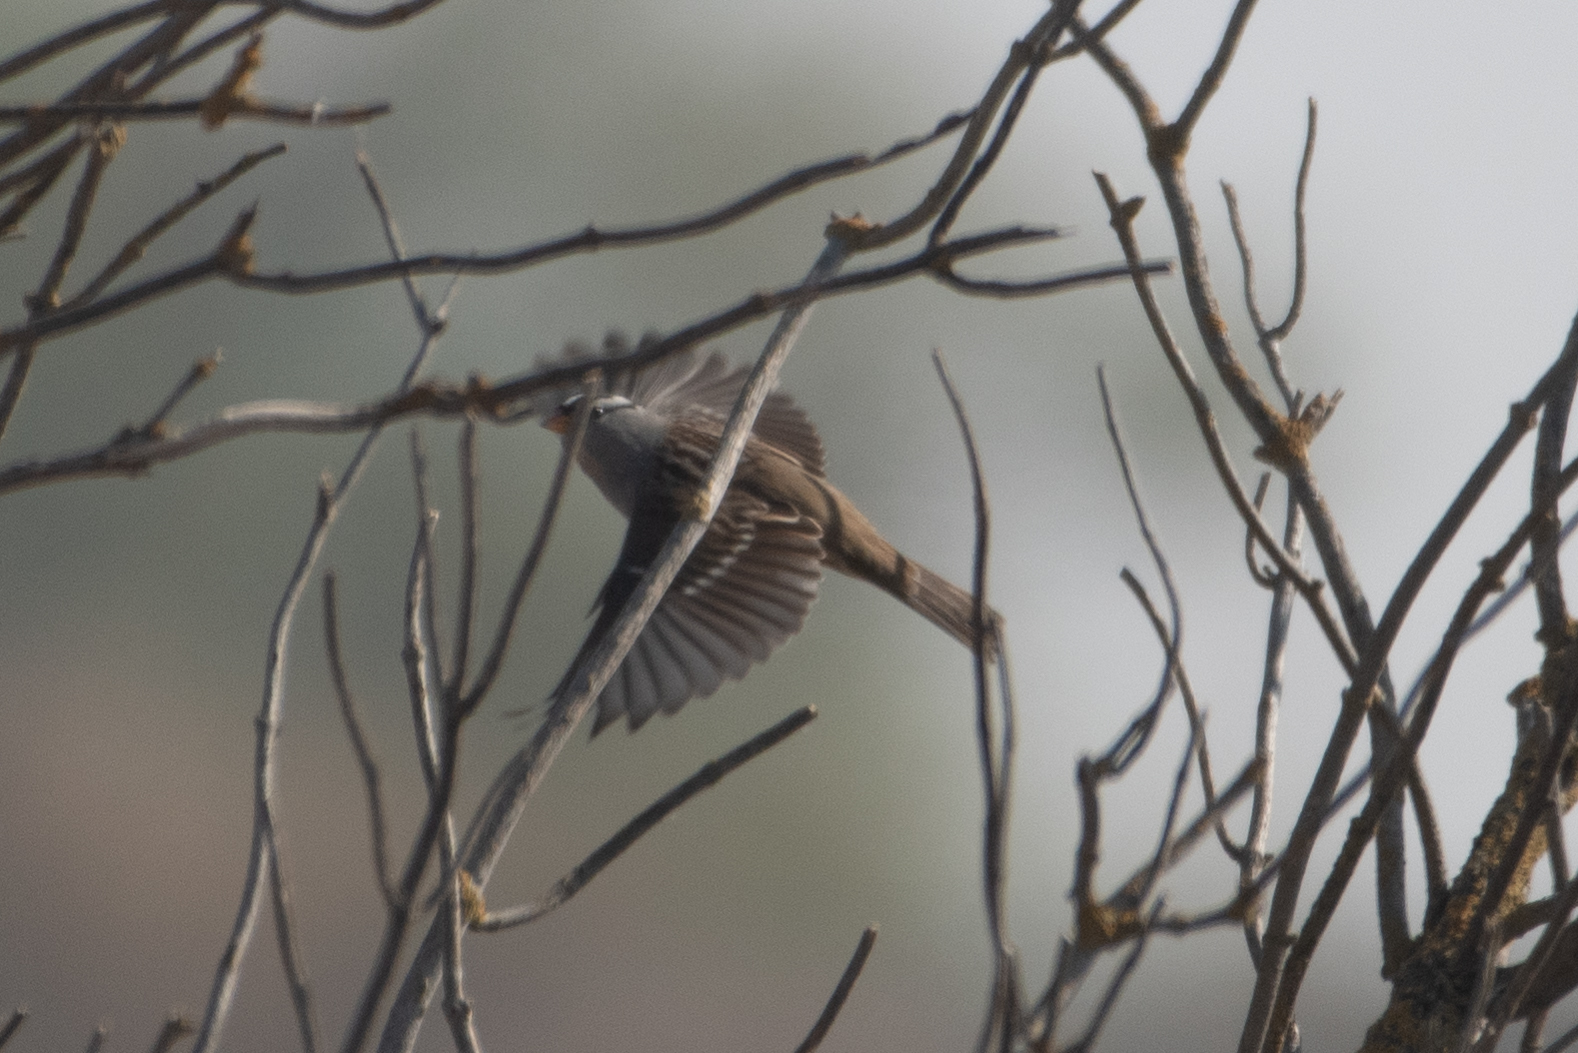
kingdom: Animalia
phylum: Chordata
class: Aves
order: Passeriformes
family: Passerellidae
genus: Zonotrichia
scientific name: Zonotrichia leucophrys
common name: White-crowned sparrow
